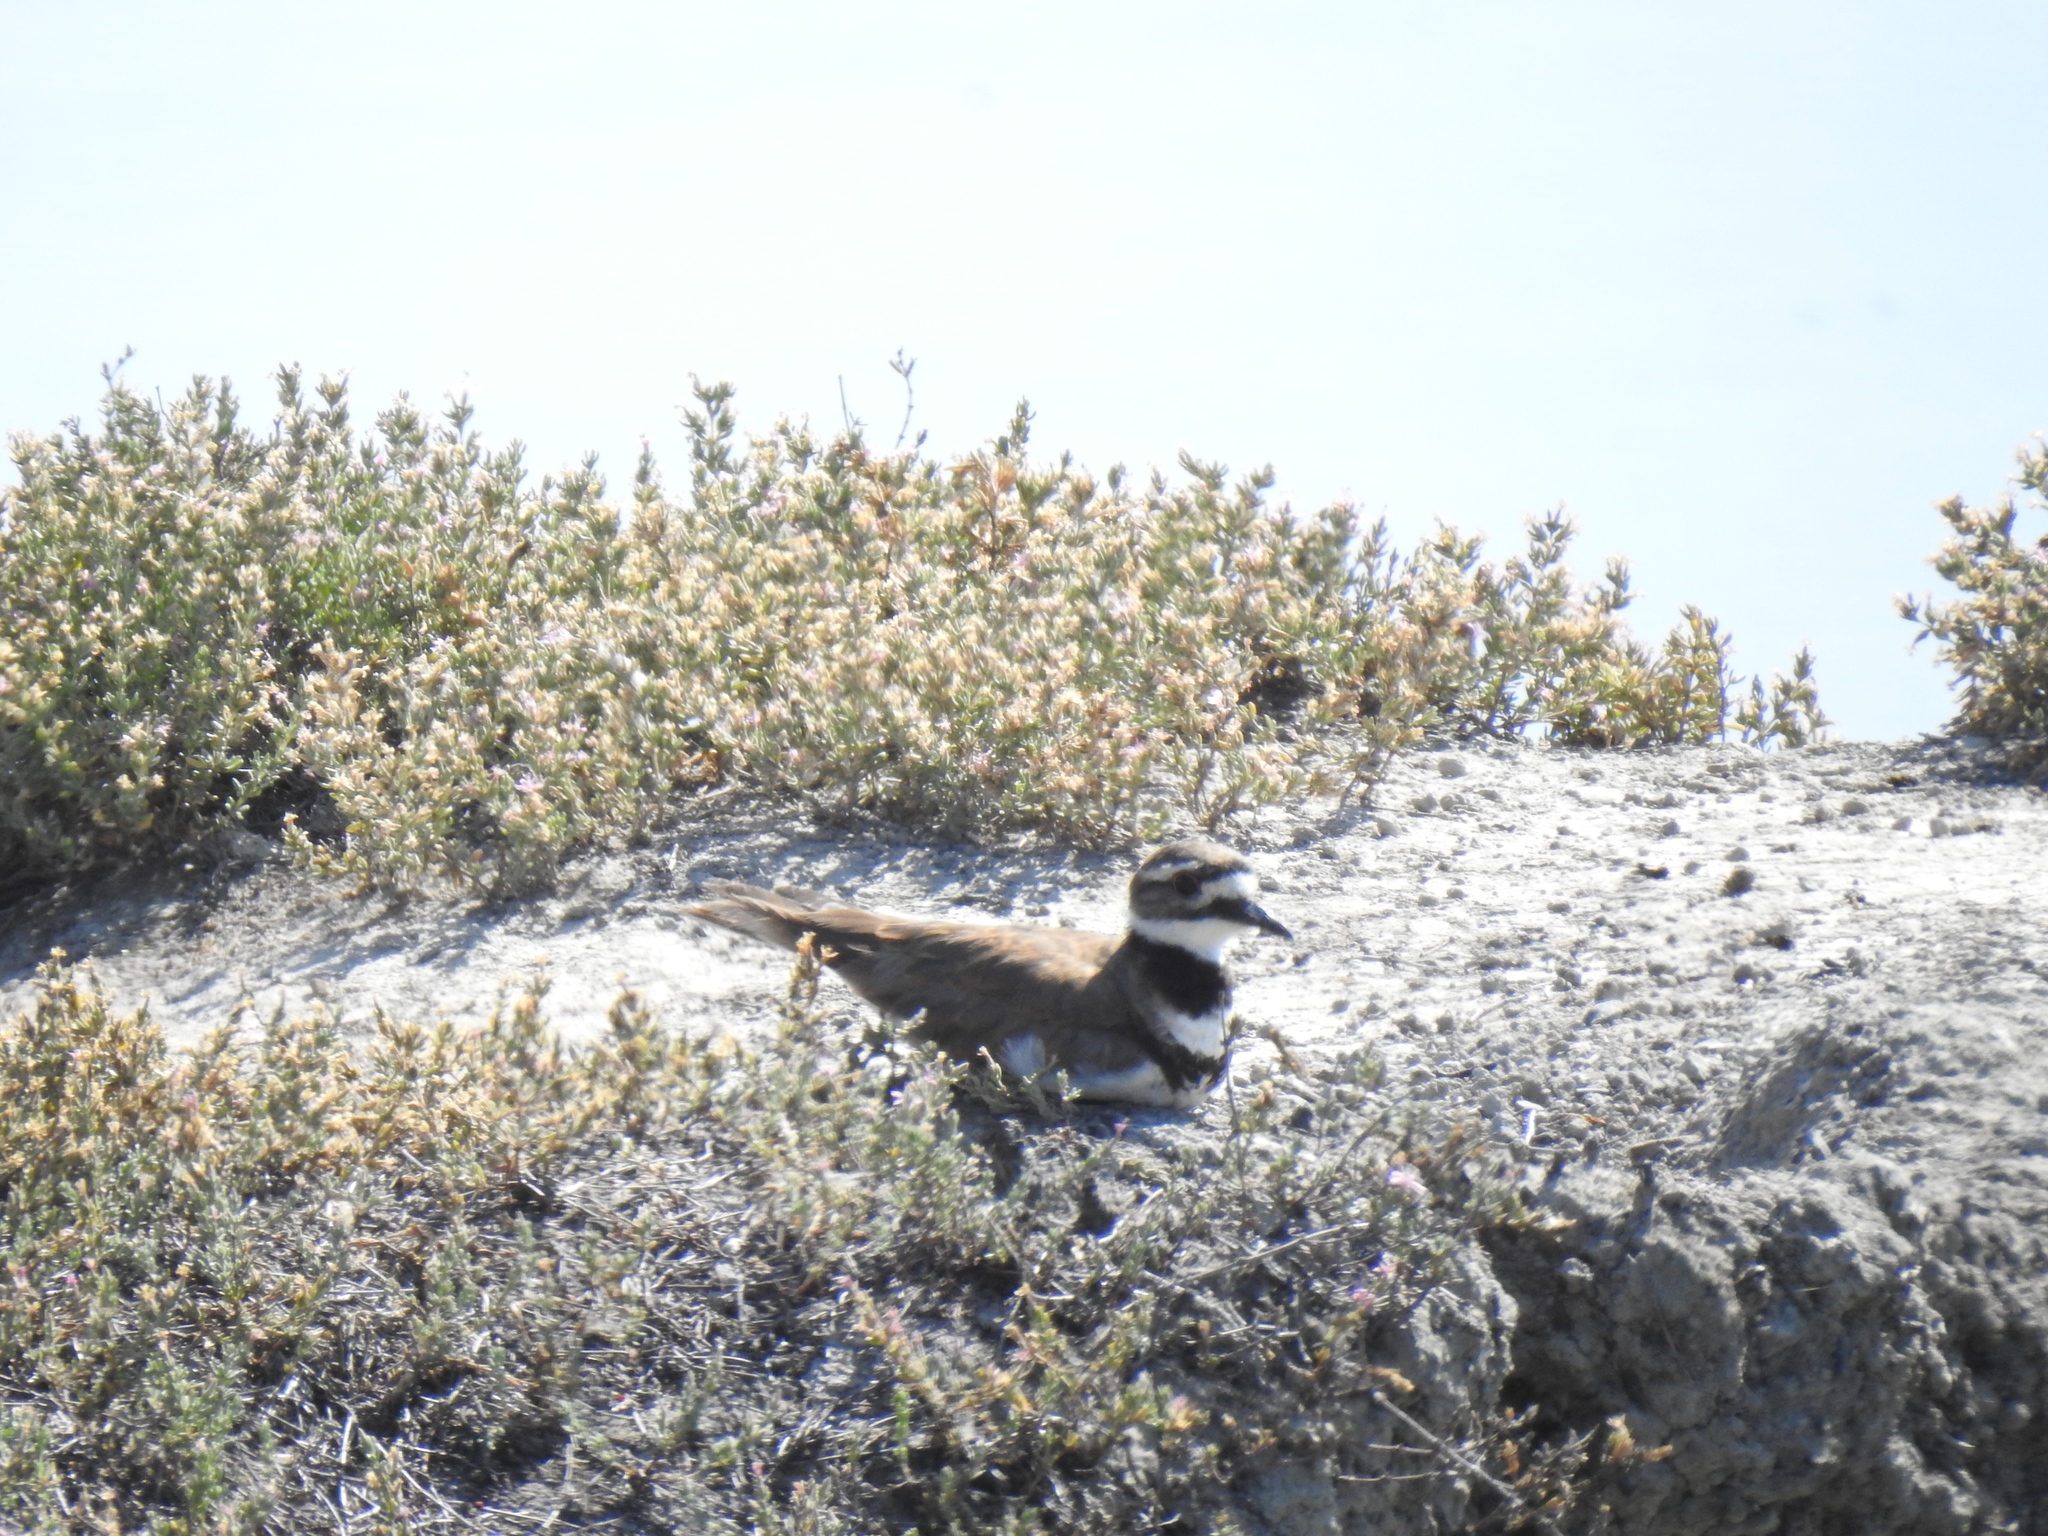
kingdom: Animalia
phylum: Chordata
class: Aves
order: Charadriiformes
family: Charadriidae
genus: Charadrius
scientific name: Charadrius vociferus
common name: Killdeer
